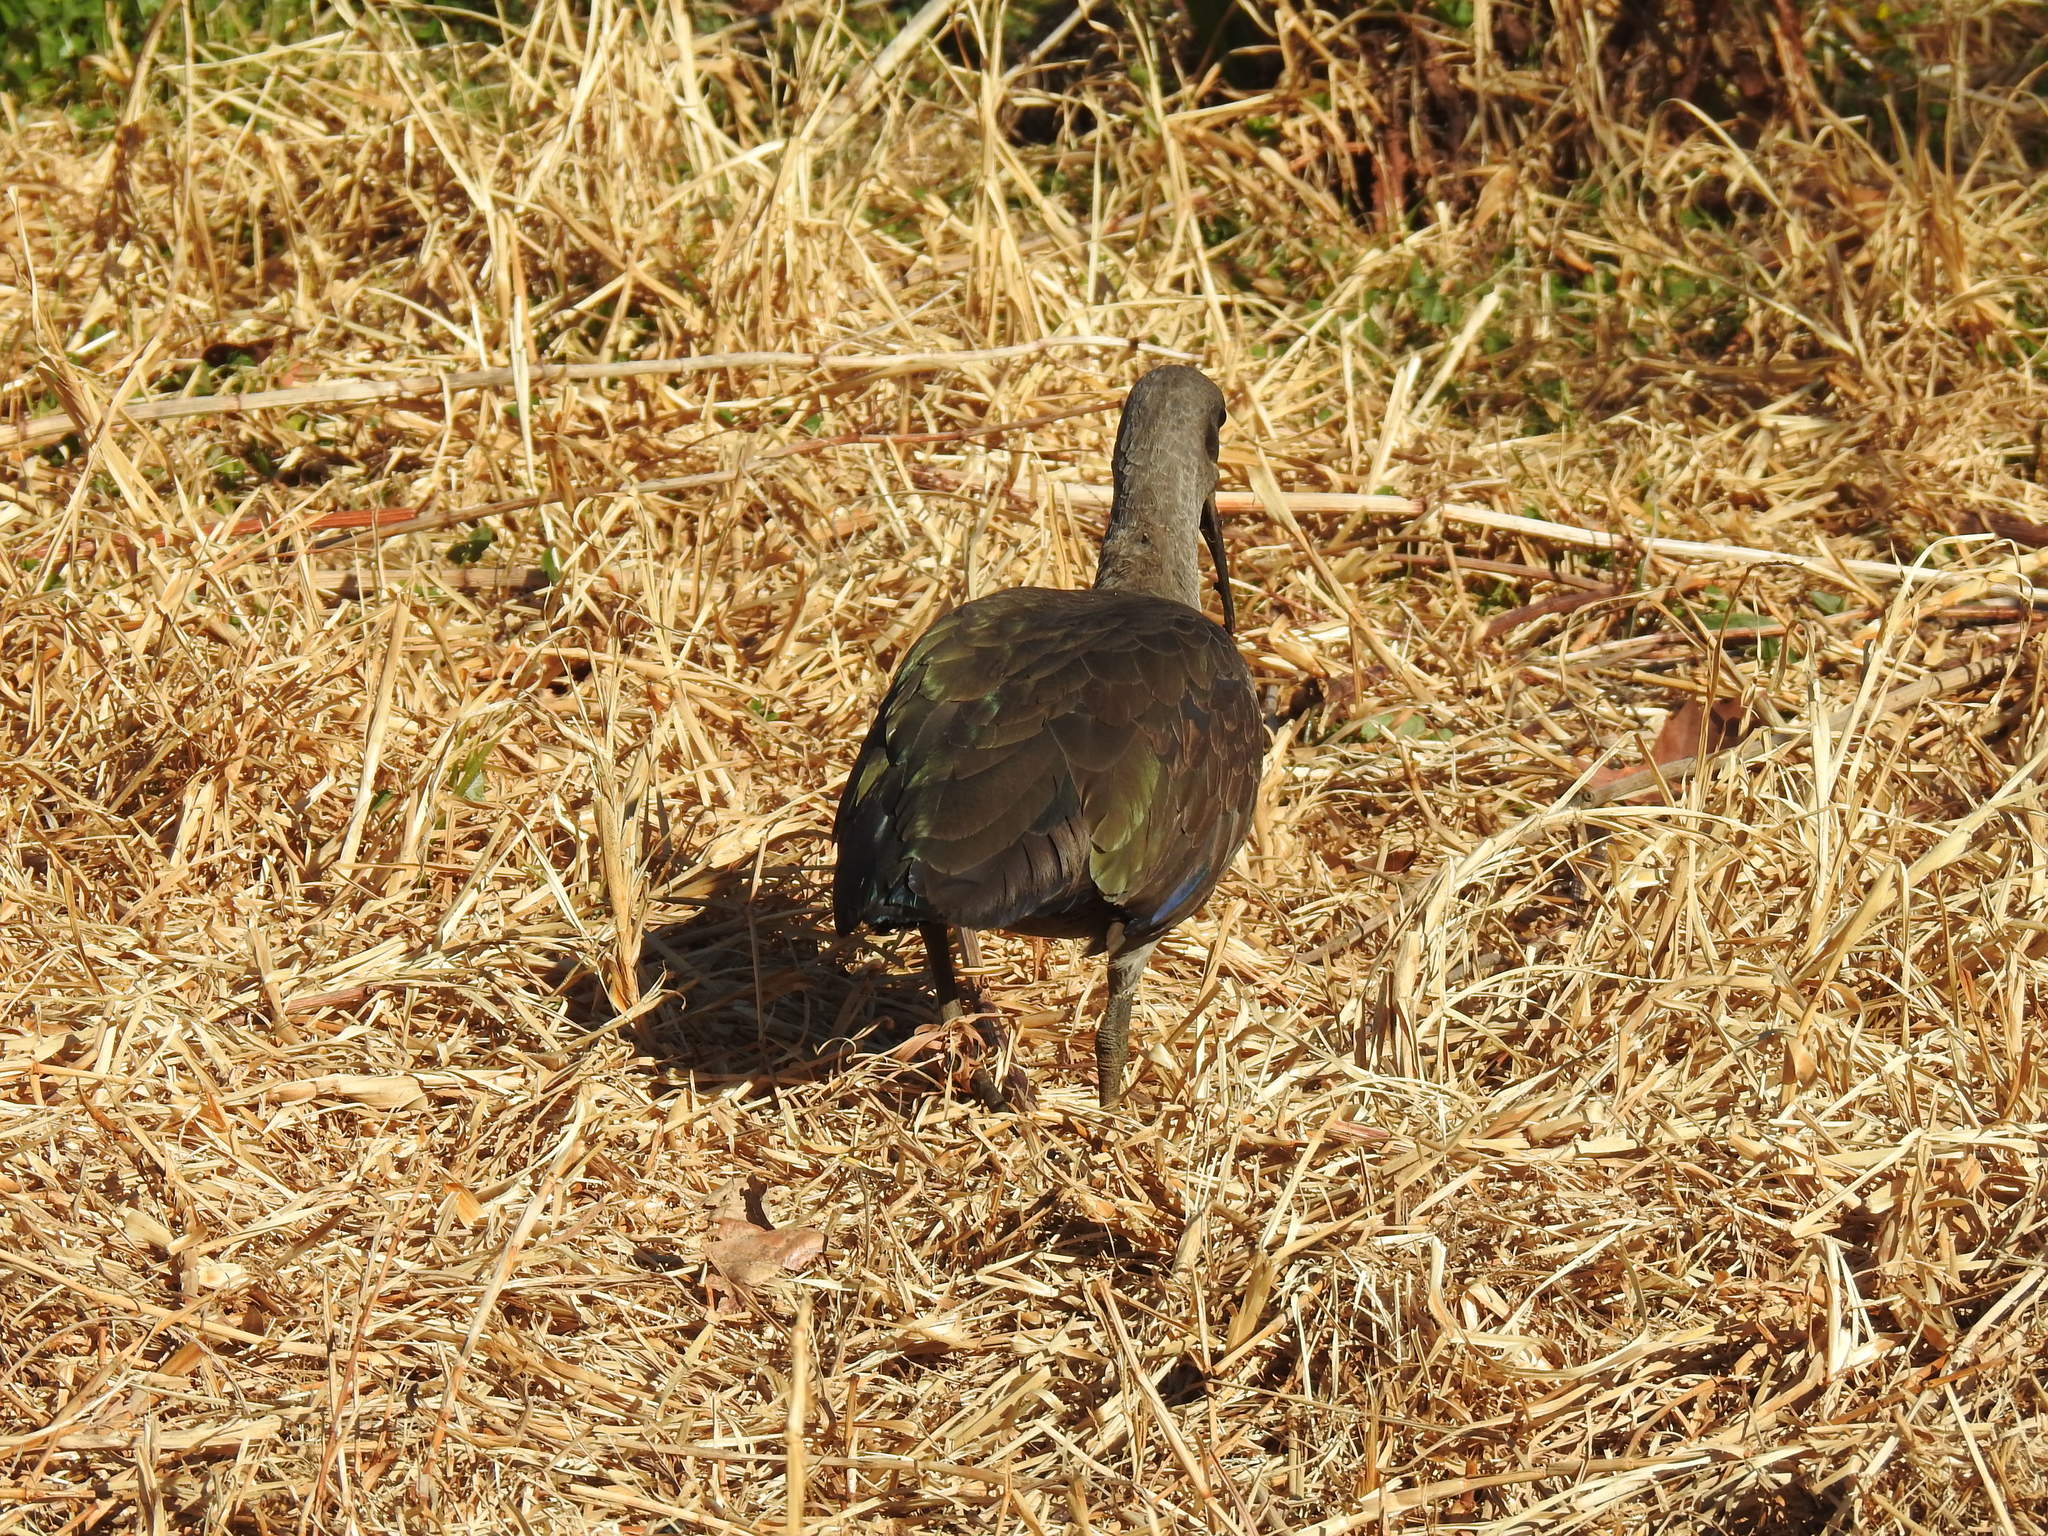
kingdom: Animalia
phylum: Chordata
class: Aves
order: Pelecaniformes
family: Threskiornithidae
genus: Bostrychia
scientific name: Bostrychia hagedash
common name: Hadada ibis
